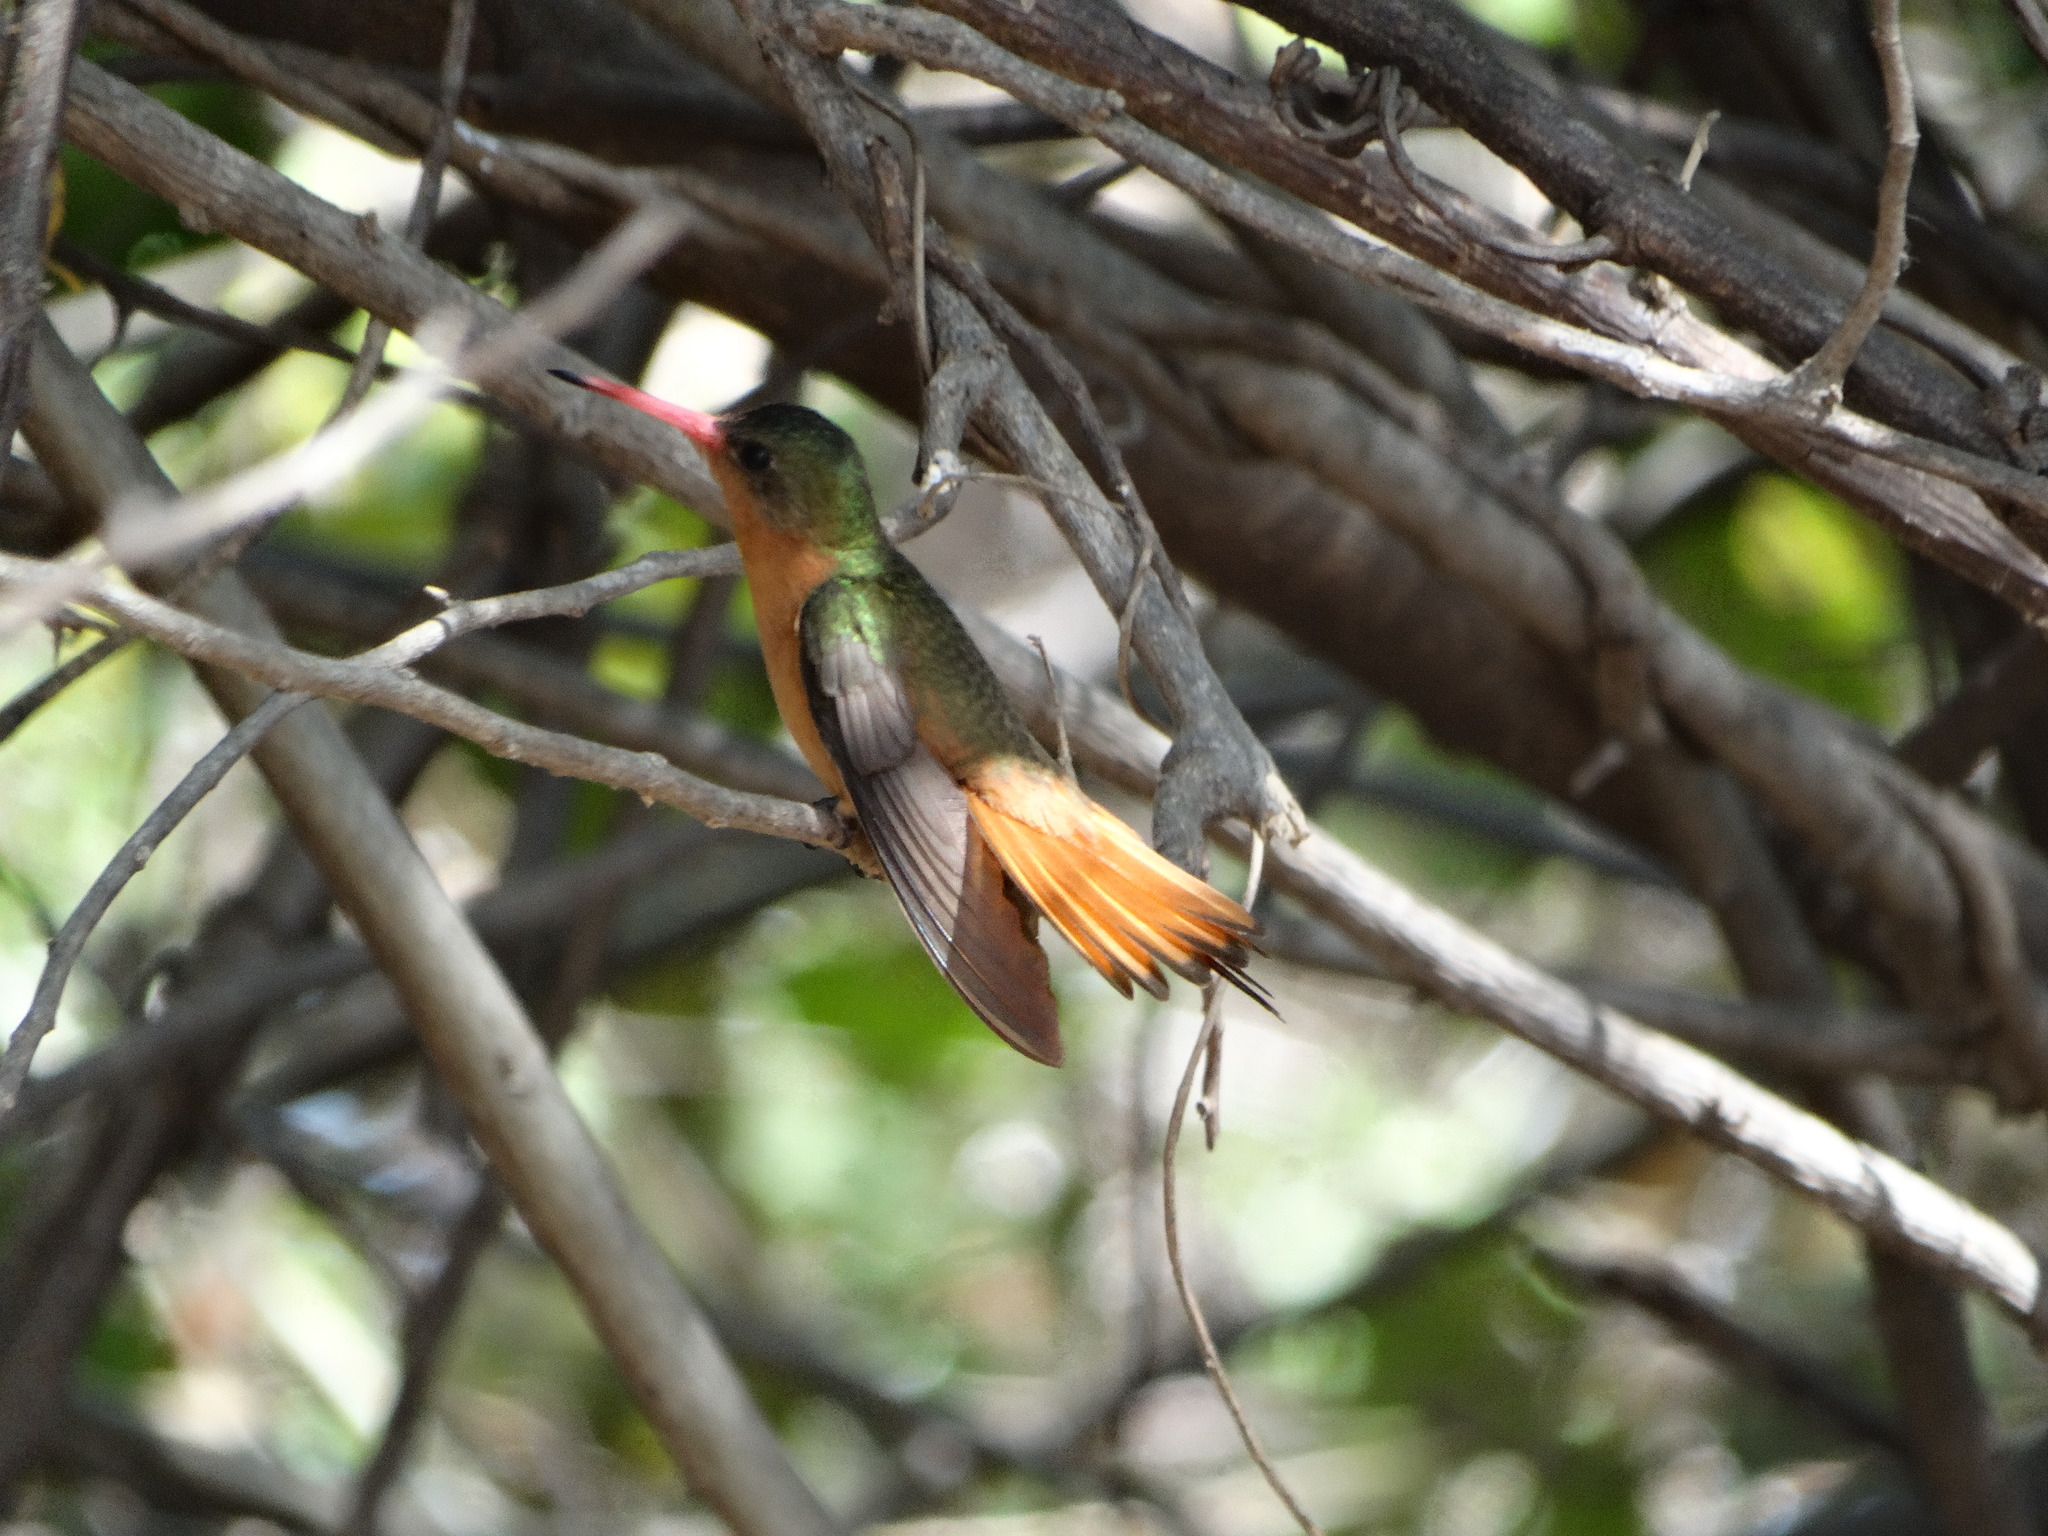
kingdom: Animalia
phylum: Chordata
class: Aves
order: Apodiformes
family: Trochilidae
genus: Amazilia
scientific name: Amazilia rutila
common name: Cinnamon hummingbird
